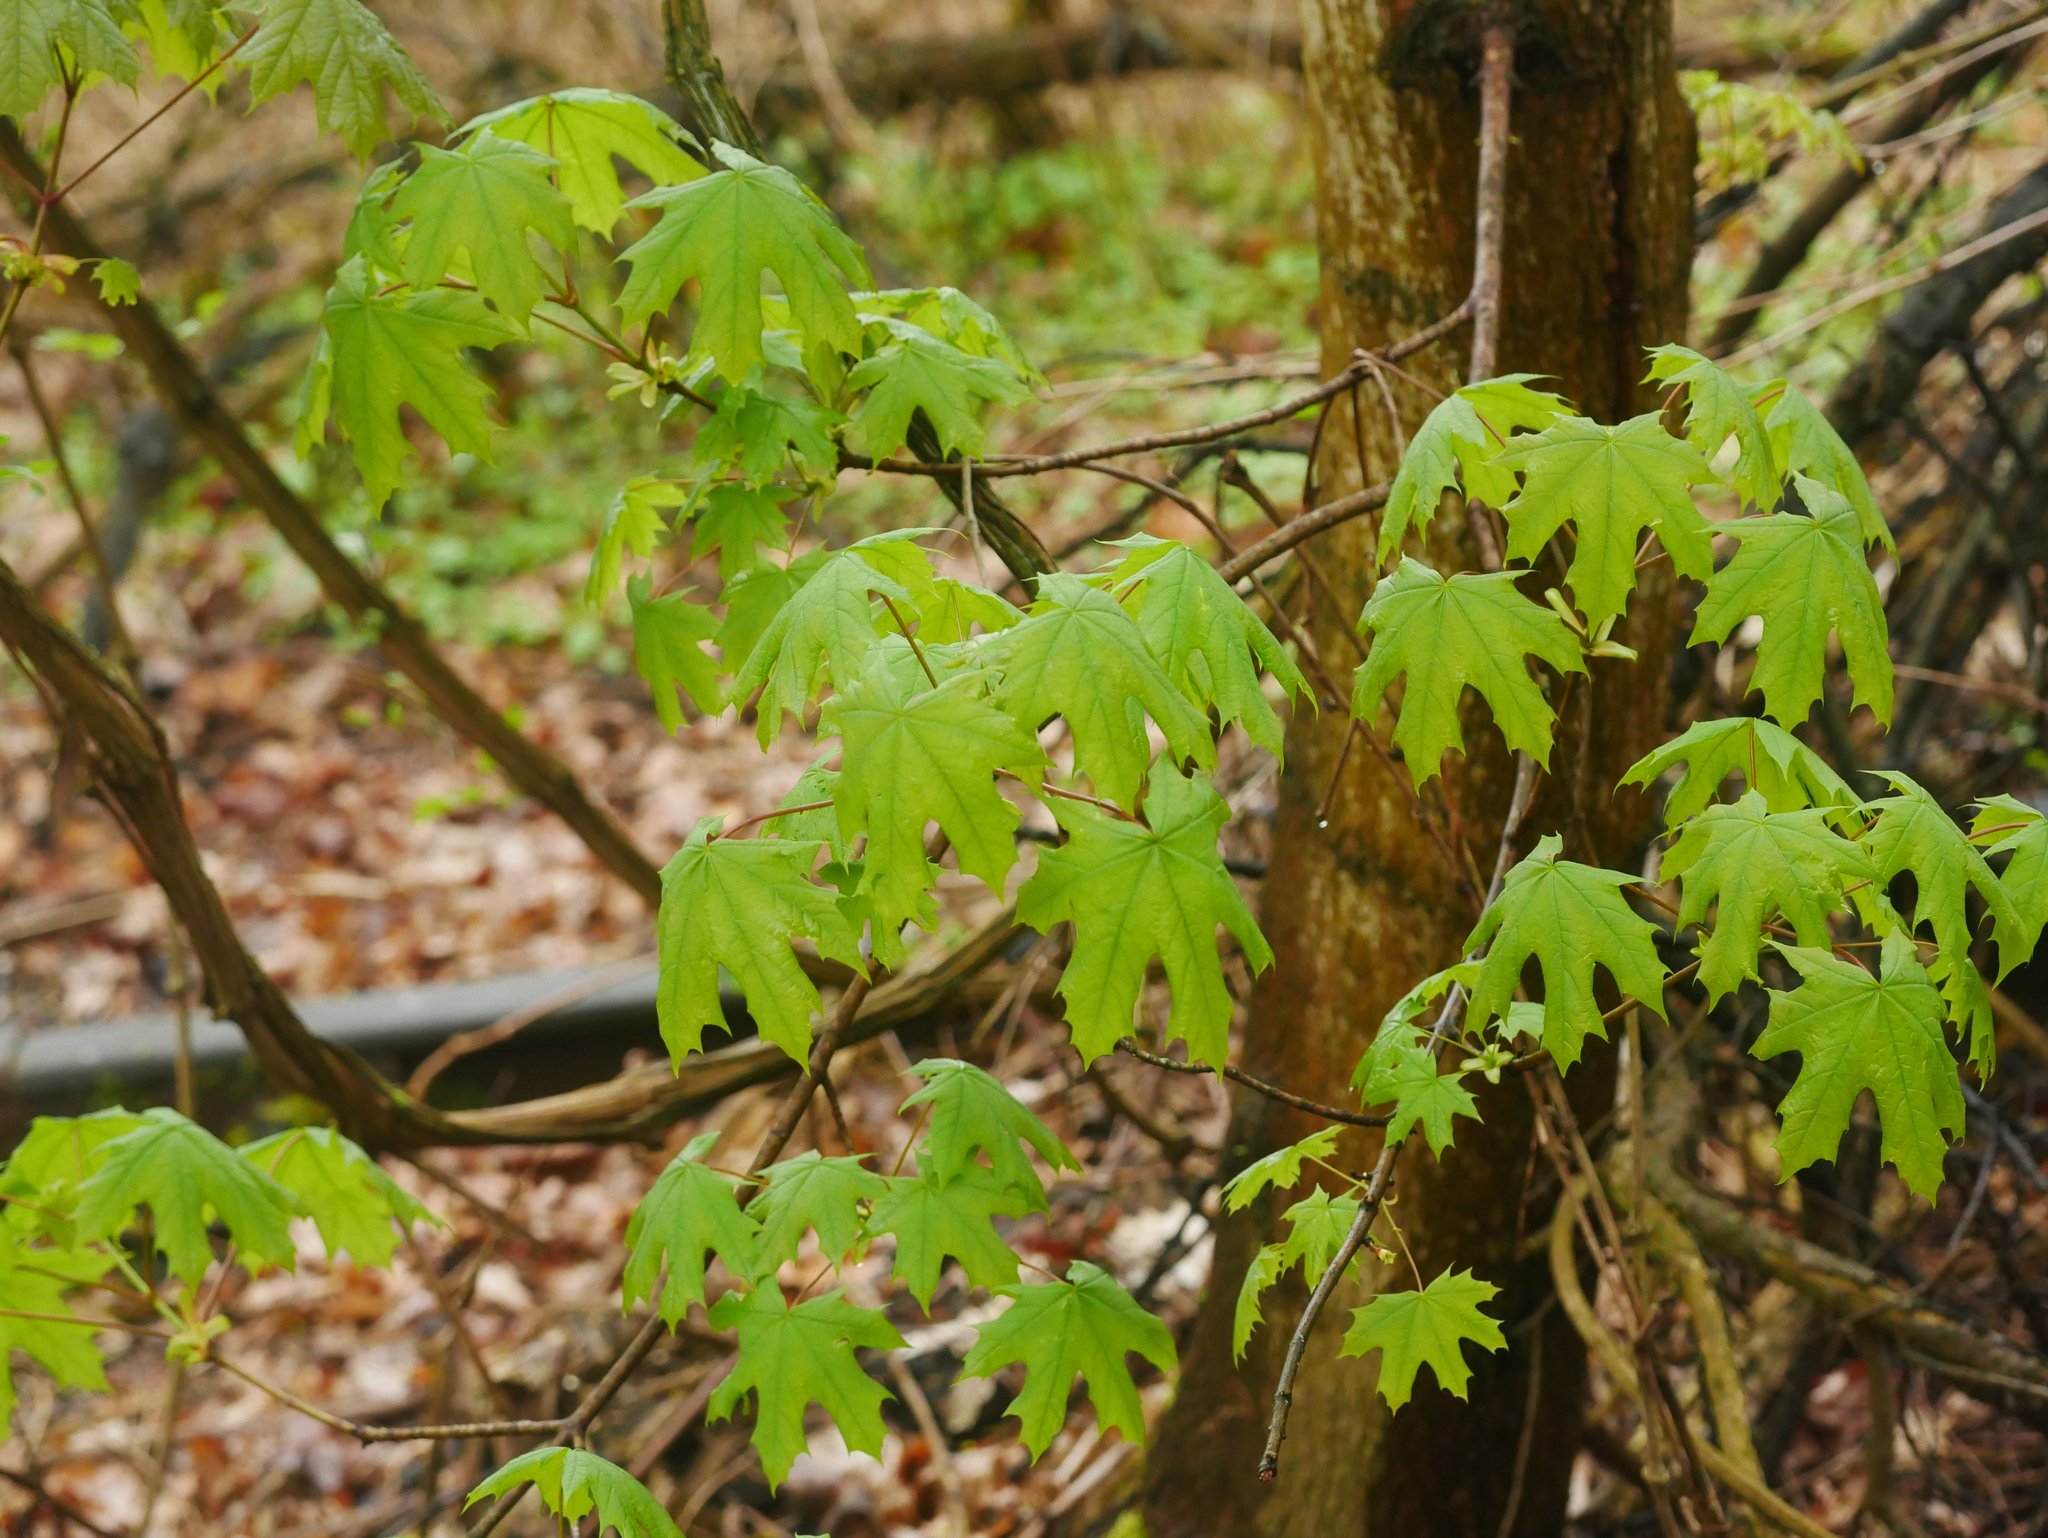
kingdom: Plantae
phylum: Tracheophyta
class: Magnoliopsida
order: Sapindales
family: Sapindaceae
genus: Acer
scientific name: Acer platanoides
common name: Norway maple
